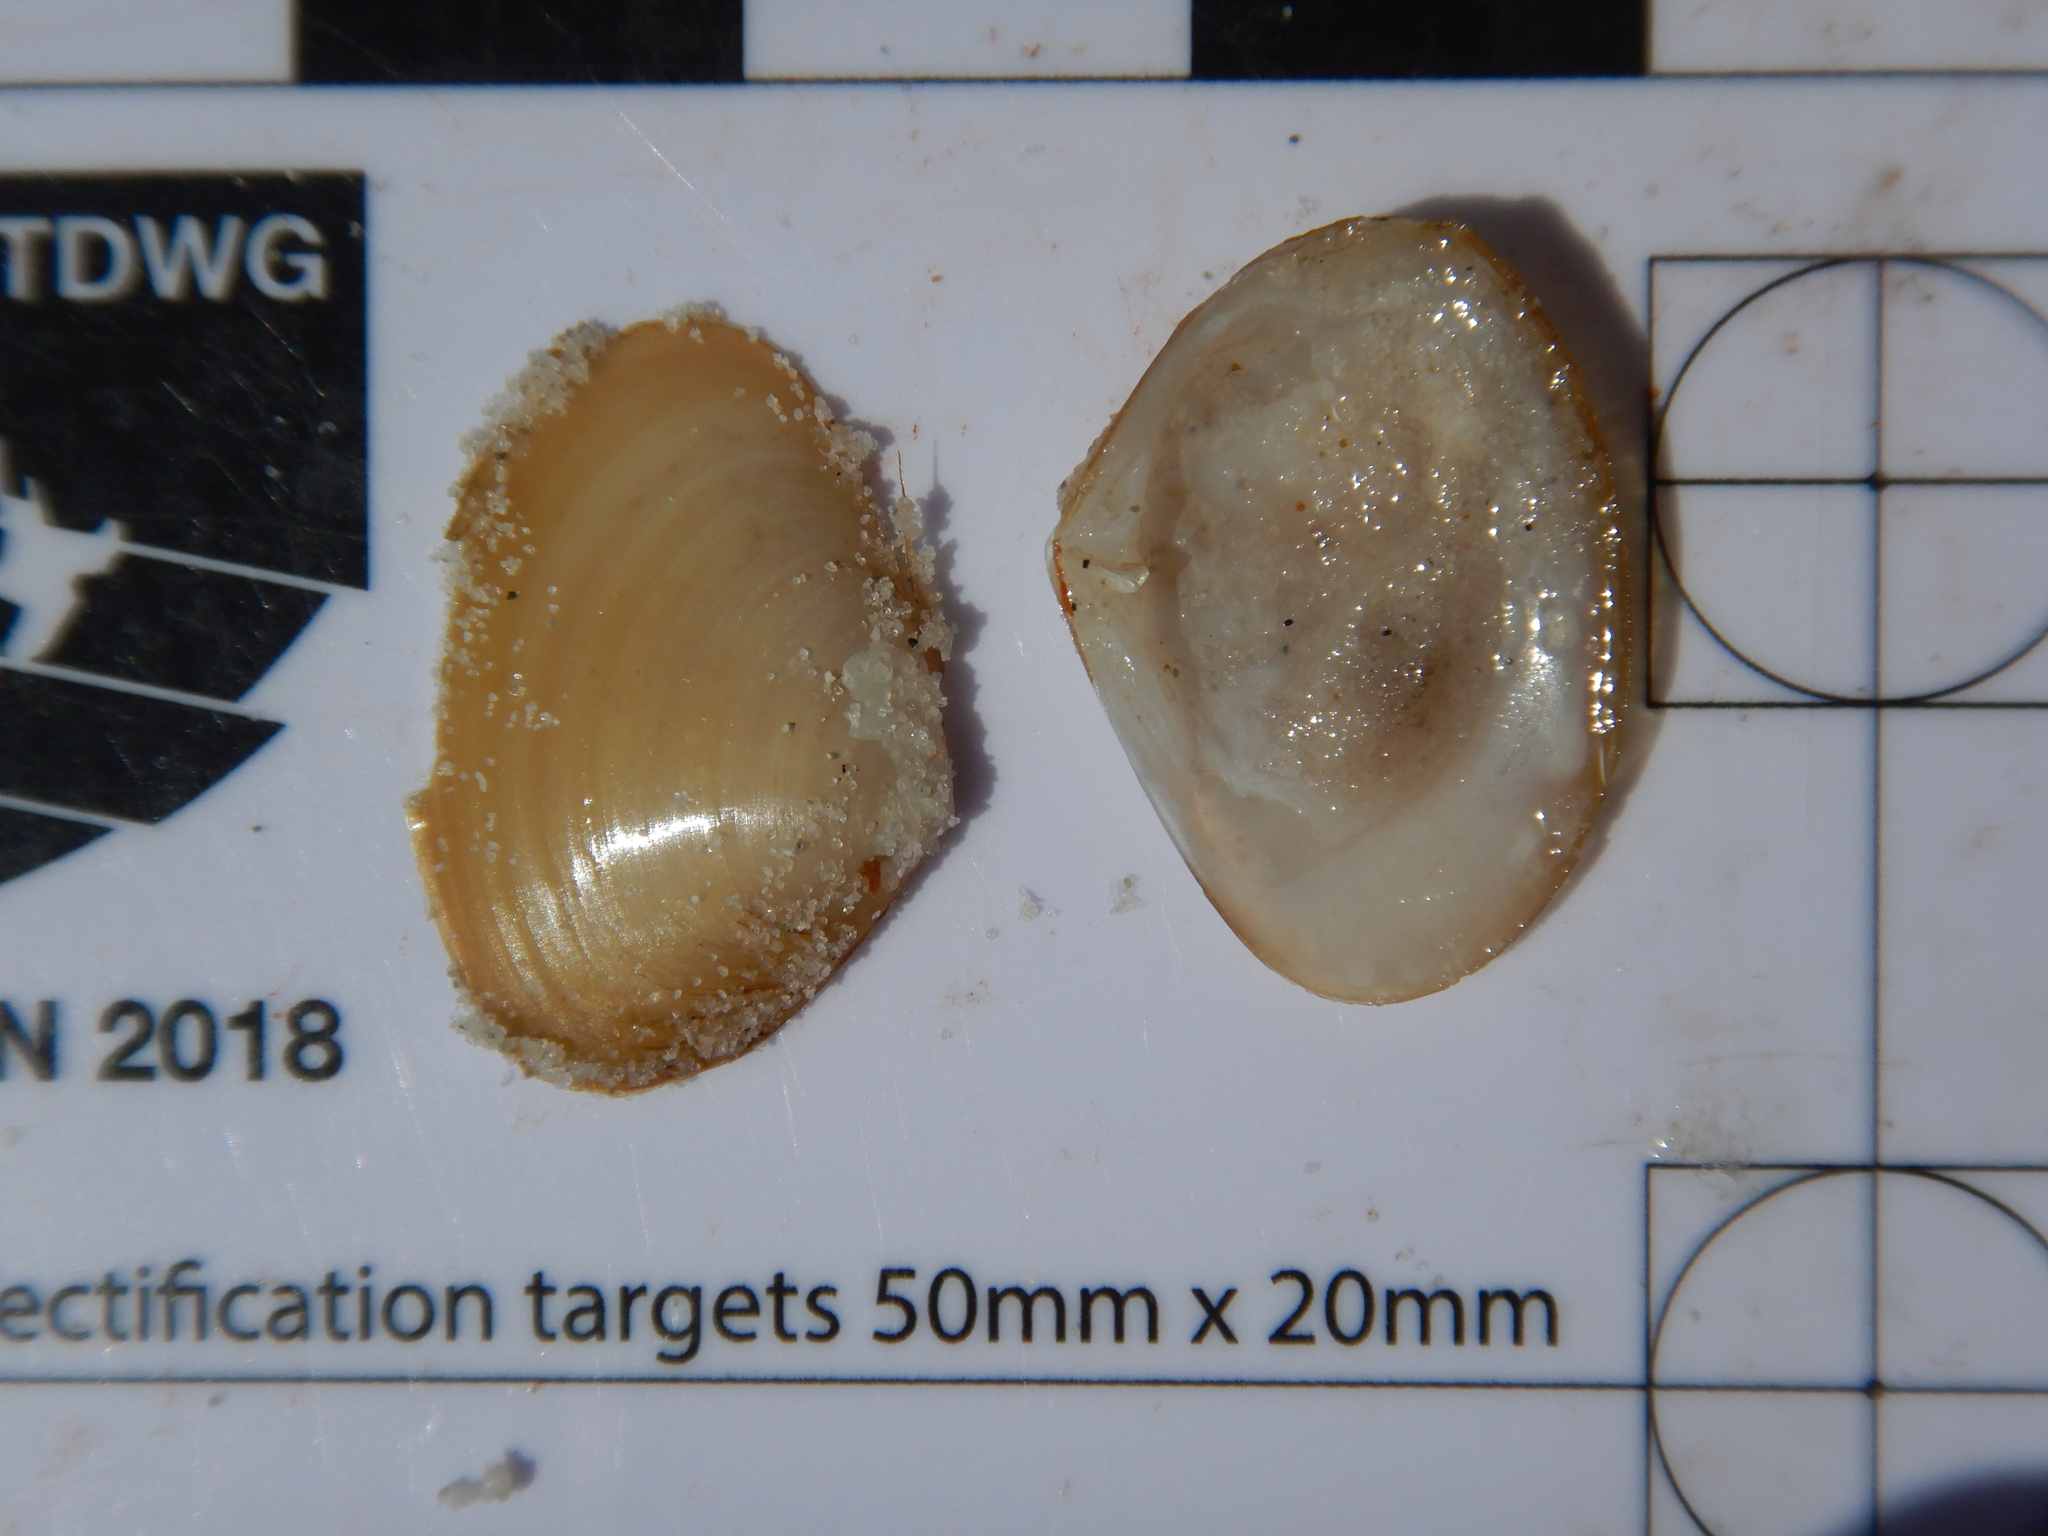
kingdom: Animalia
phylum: Mollusca
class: Bivalvia
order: Venerida
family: Mesodesmatidae
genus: Atactodea
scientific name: Atactodea erycinaea
